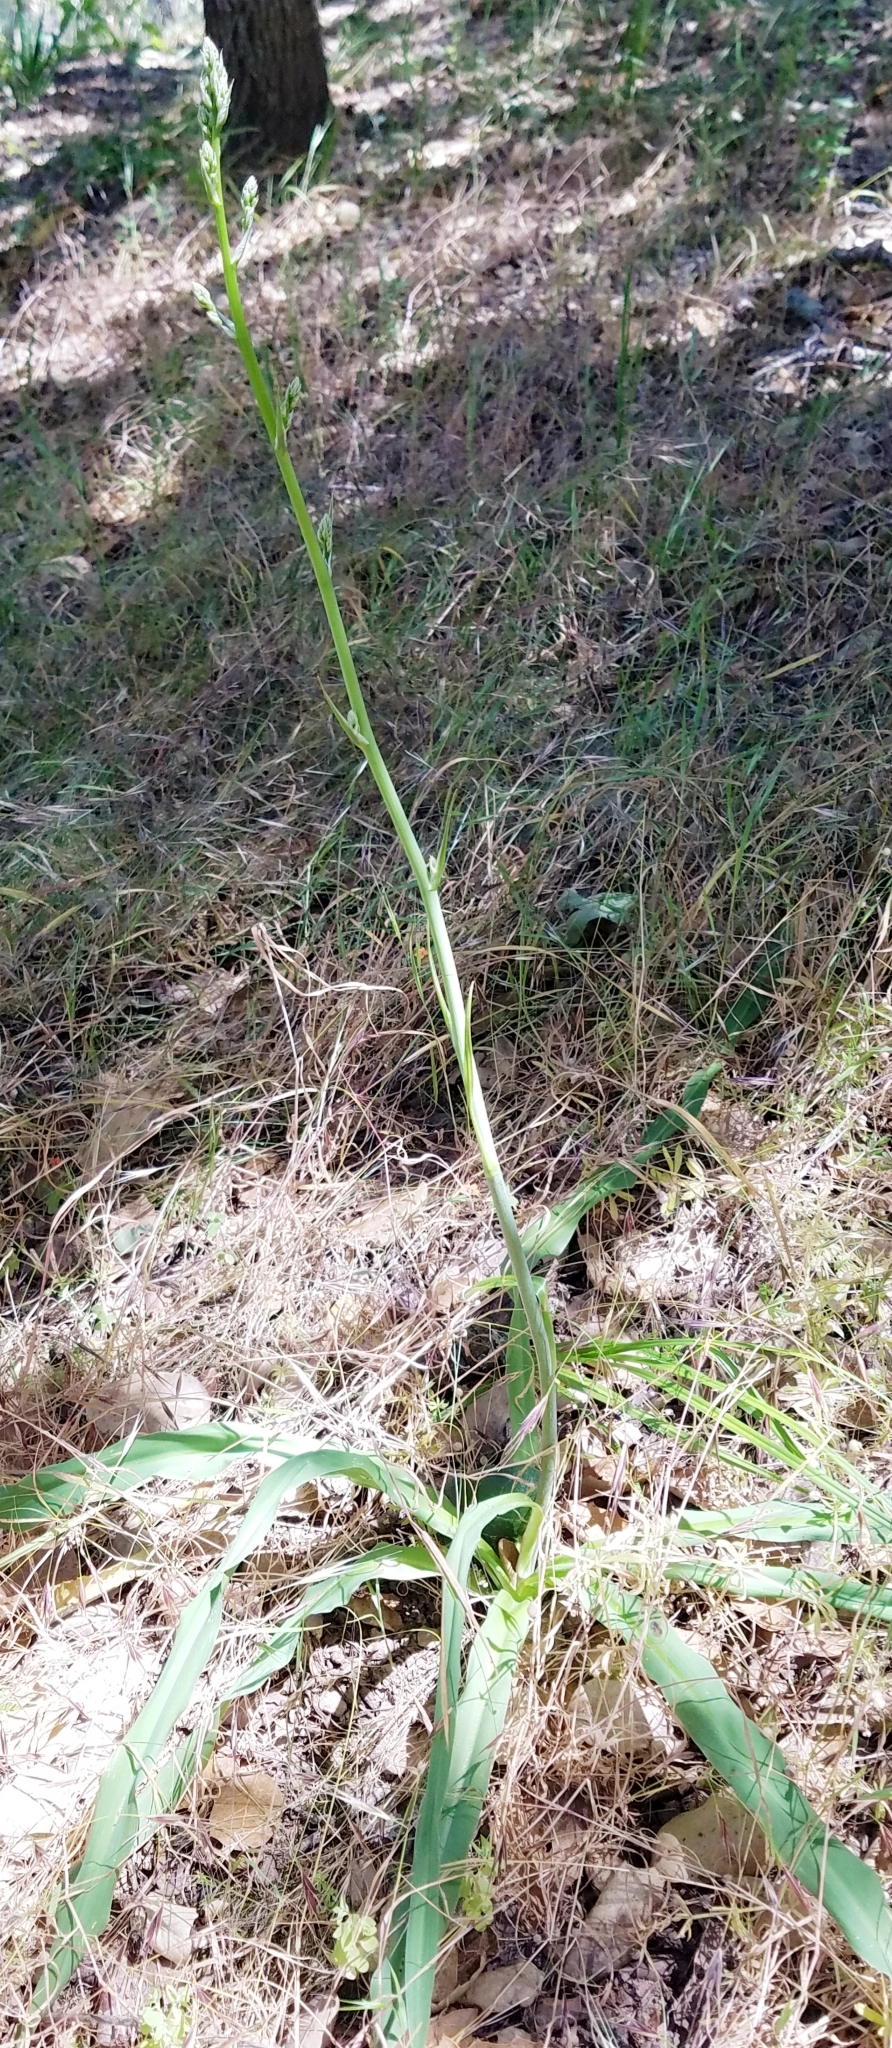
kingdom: Plantae
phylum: Tracheophyta
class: Liliopsida
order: Asparagales
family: Asparagaceae
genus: Chlorogalum
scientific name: Chlorogalum pomeridianum
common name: Amole
